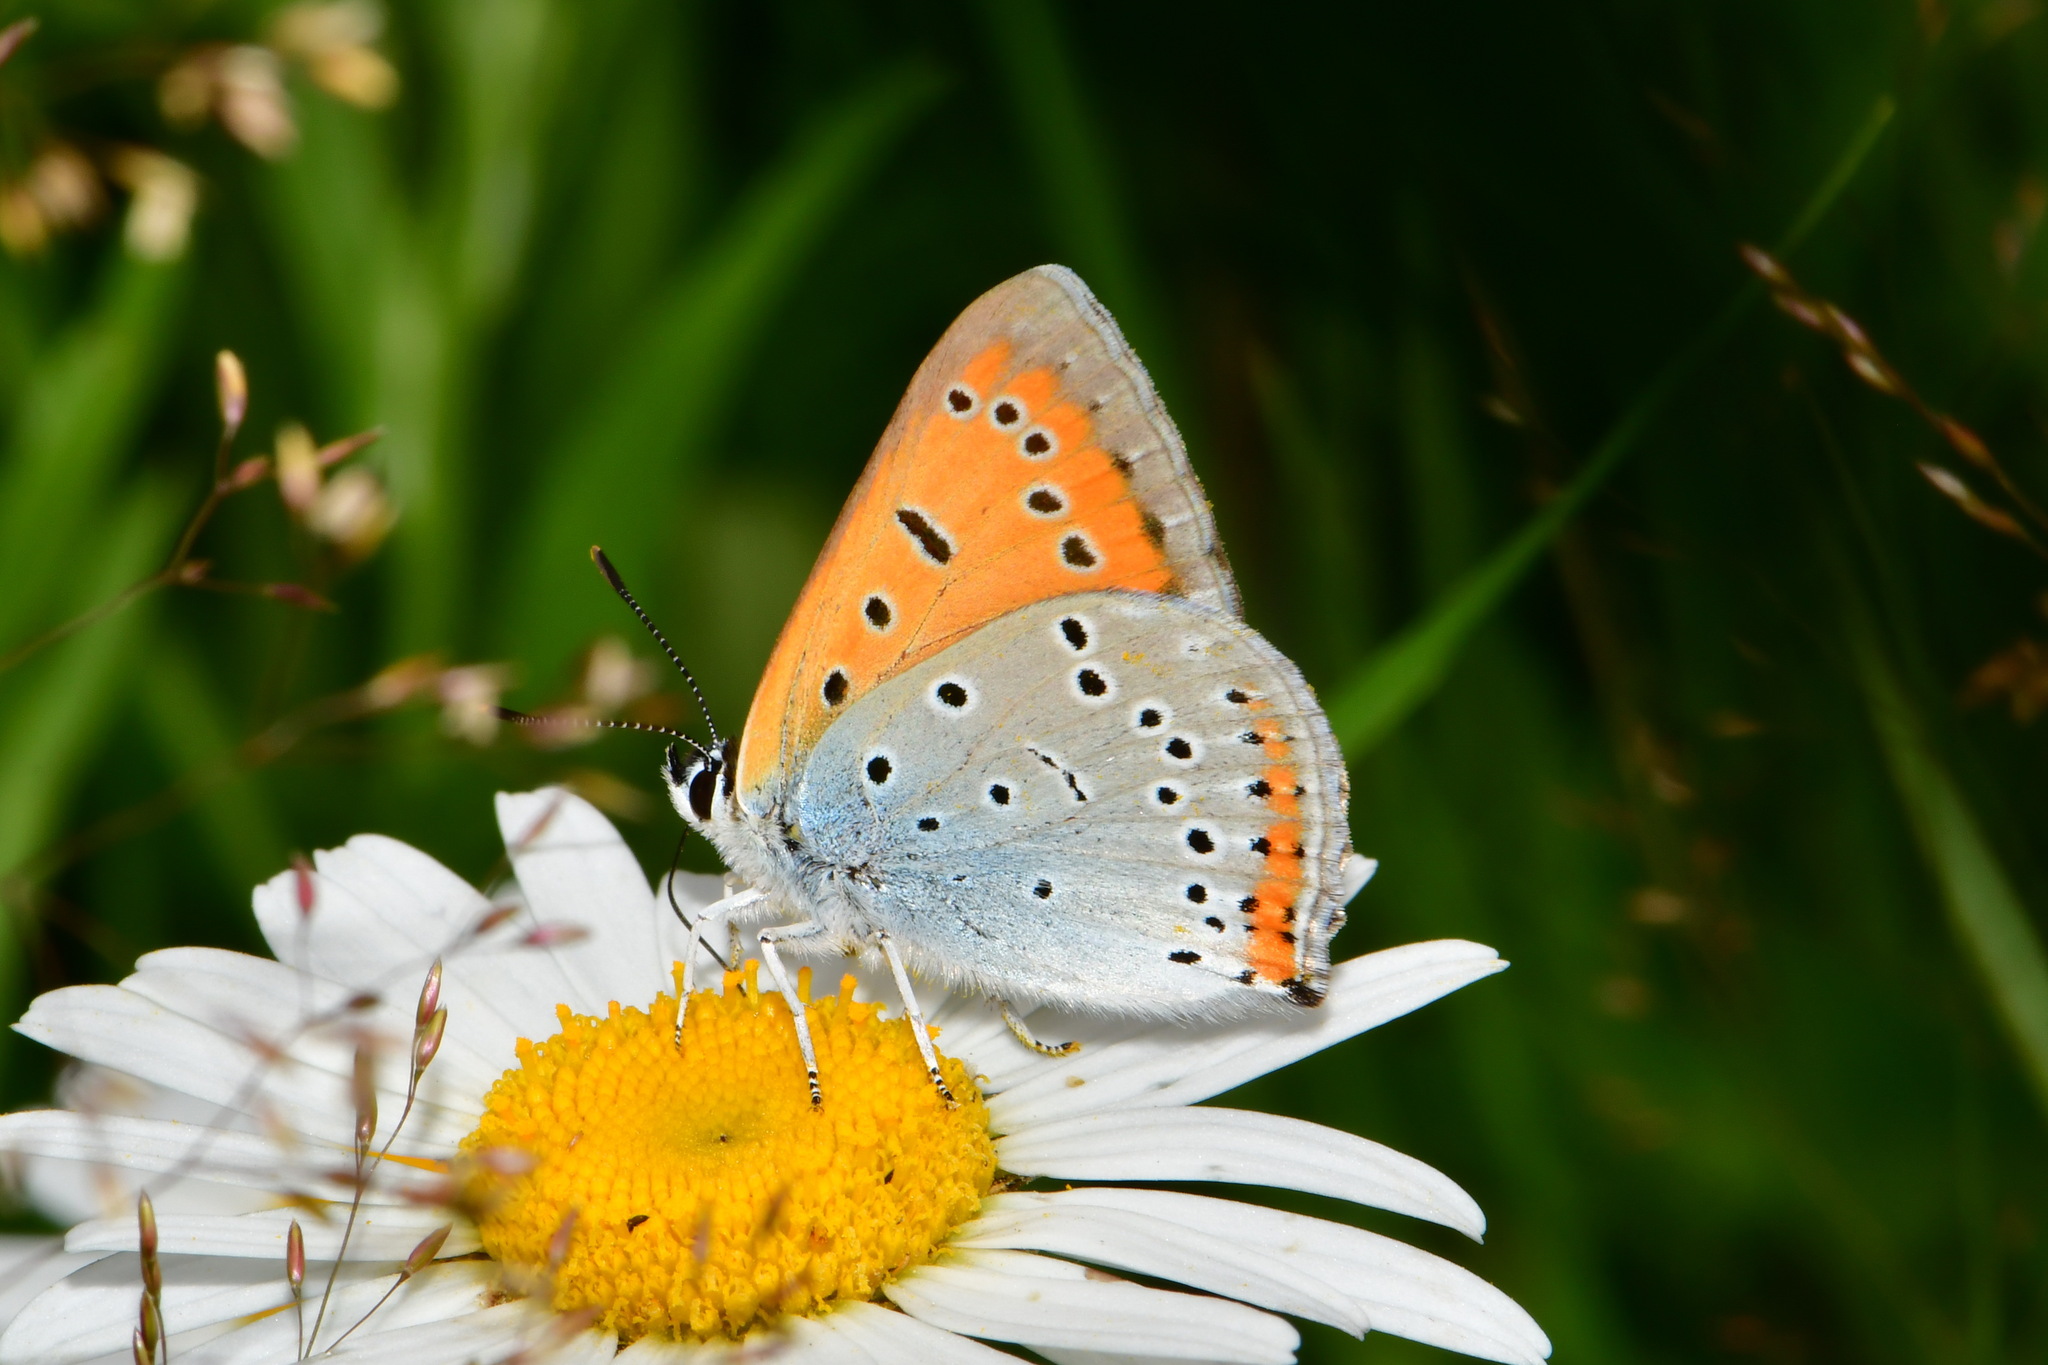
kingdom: Animalia
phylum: Arthropoda
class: Insecta
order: Lepidoptera
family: Lycaenidae
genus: Lycaena
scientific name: Lycaena dispar
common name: Large copper
